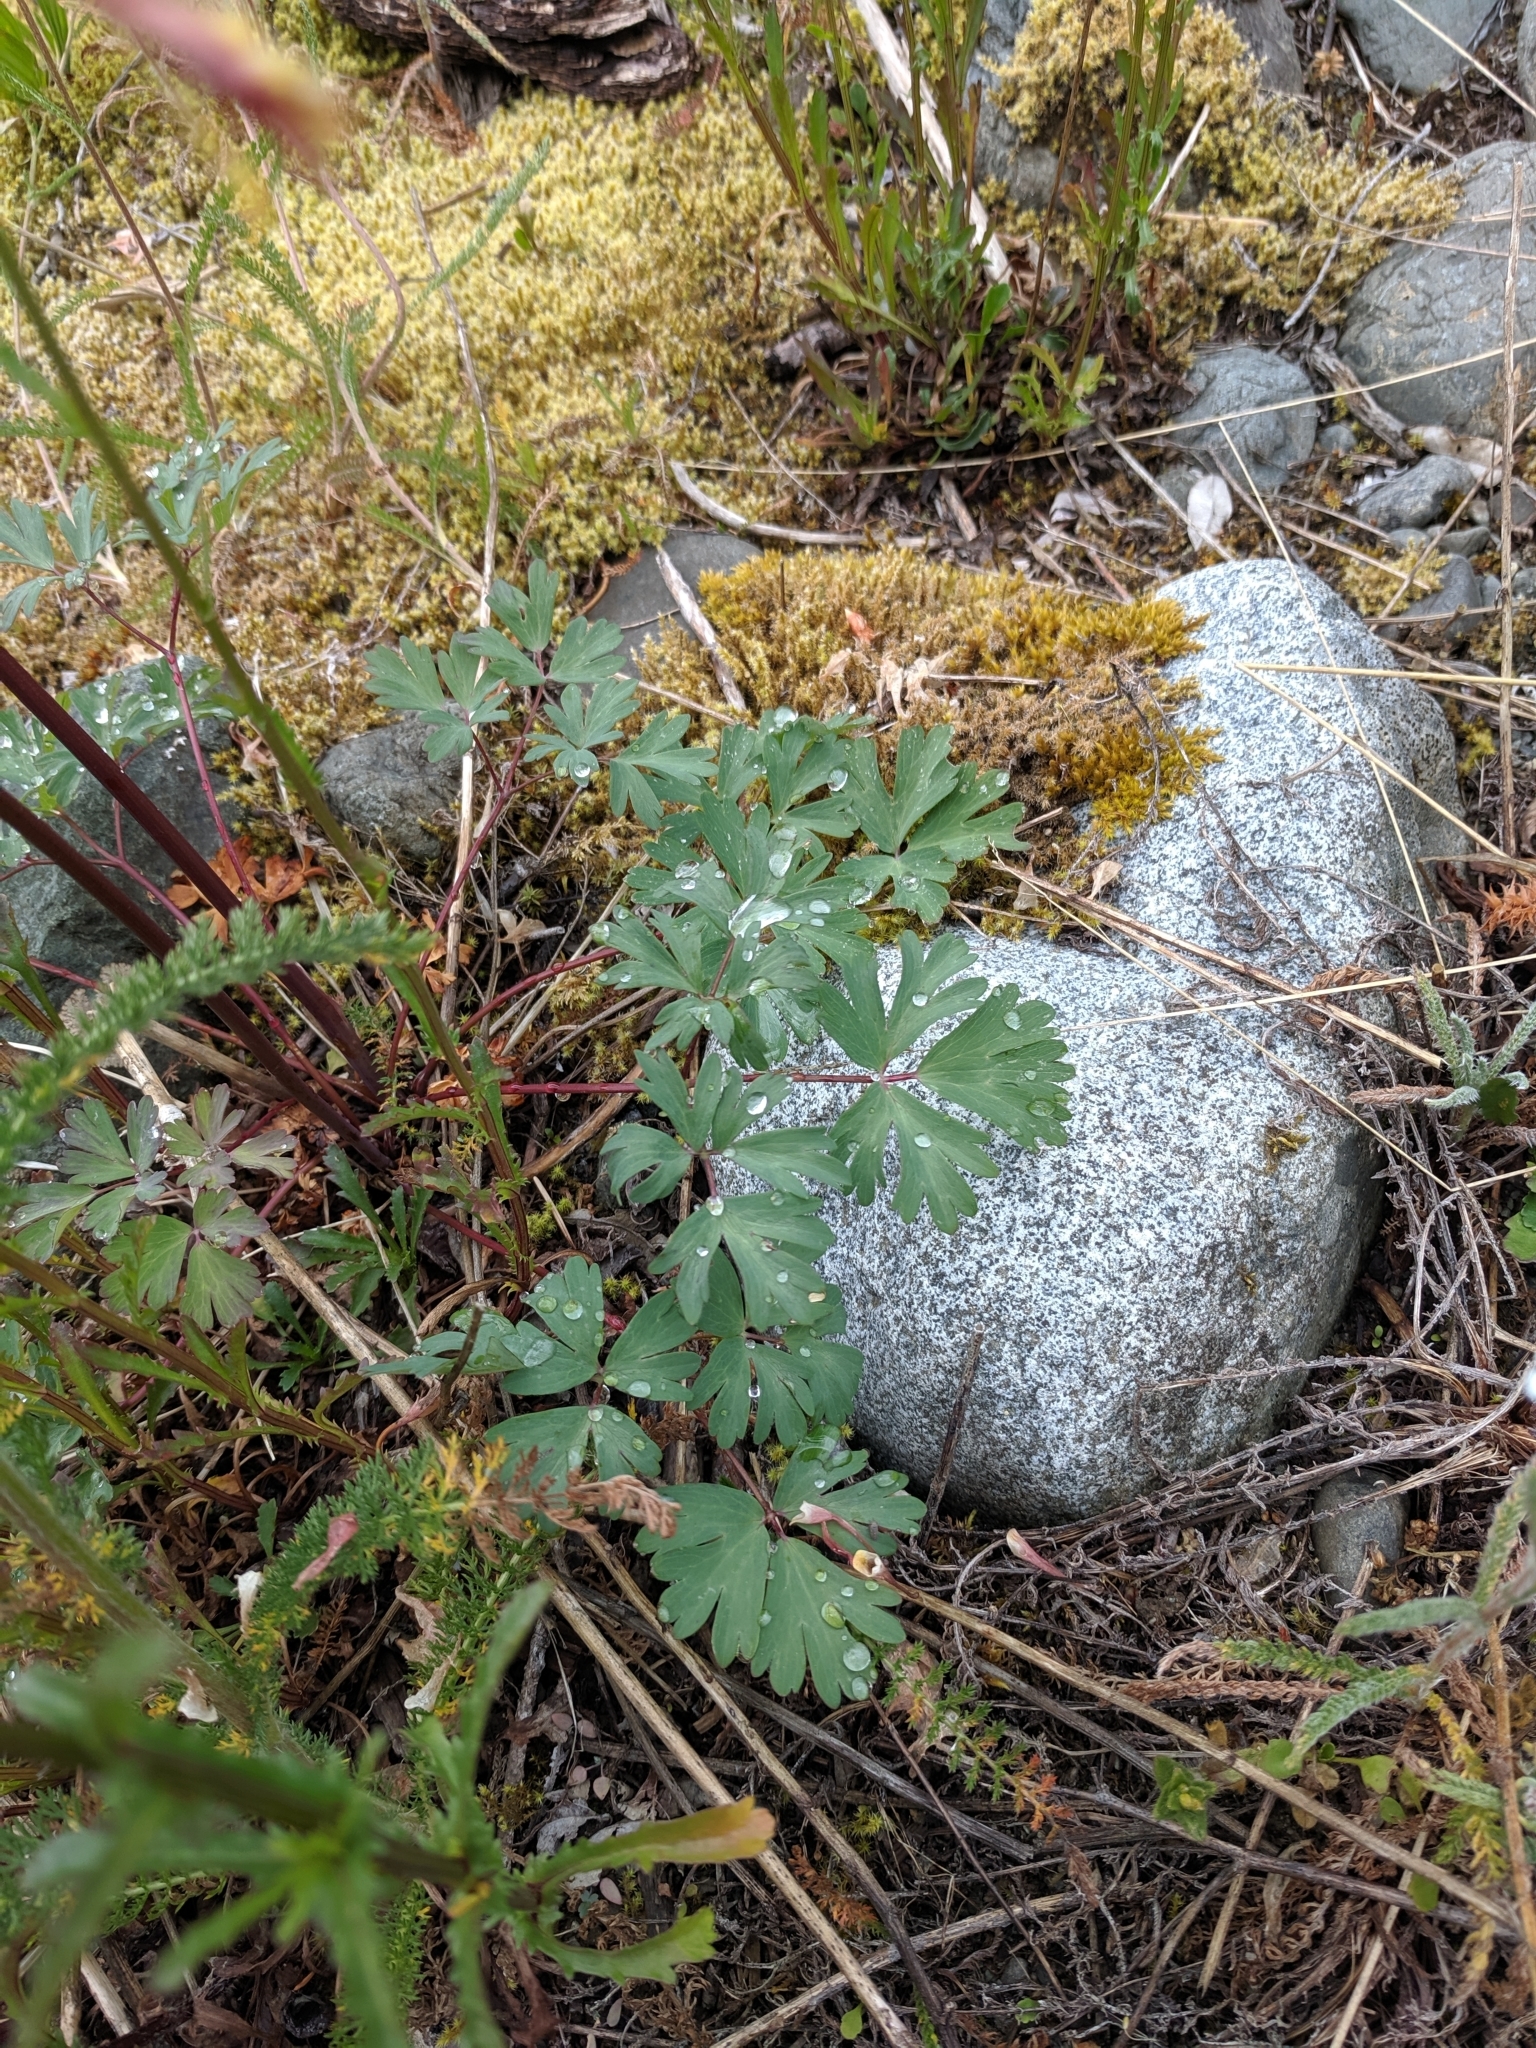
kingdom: Plantae
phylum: Tracheophyta
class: Magnoliopsida
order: Ranunculales
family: Ranunculaceae
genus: Aquilegia
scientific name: Aquilegia formosa
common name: Sitka columbine
